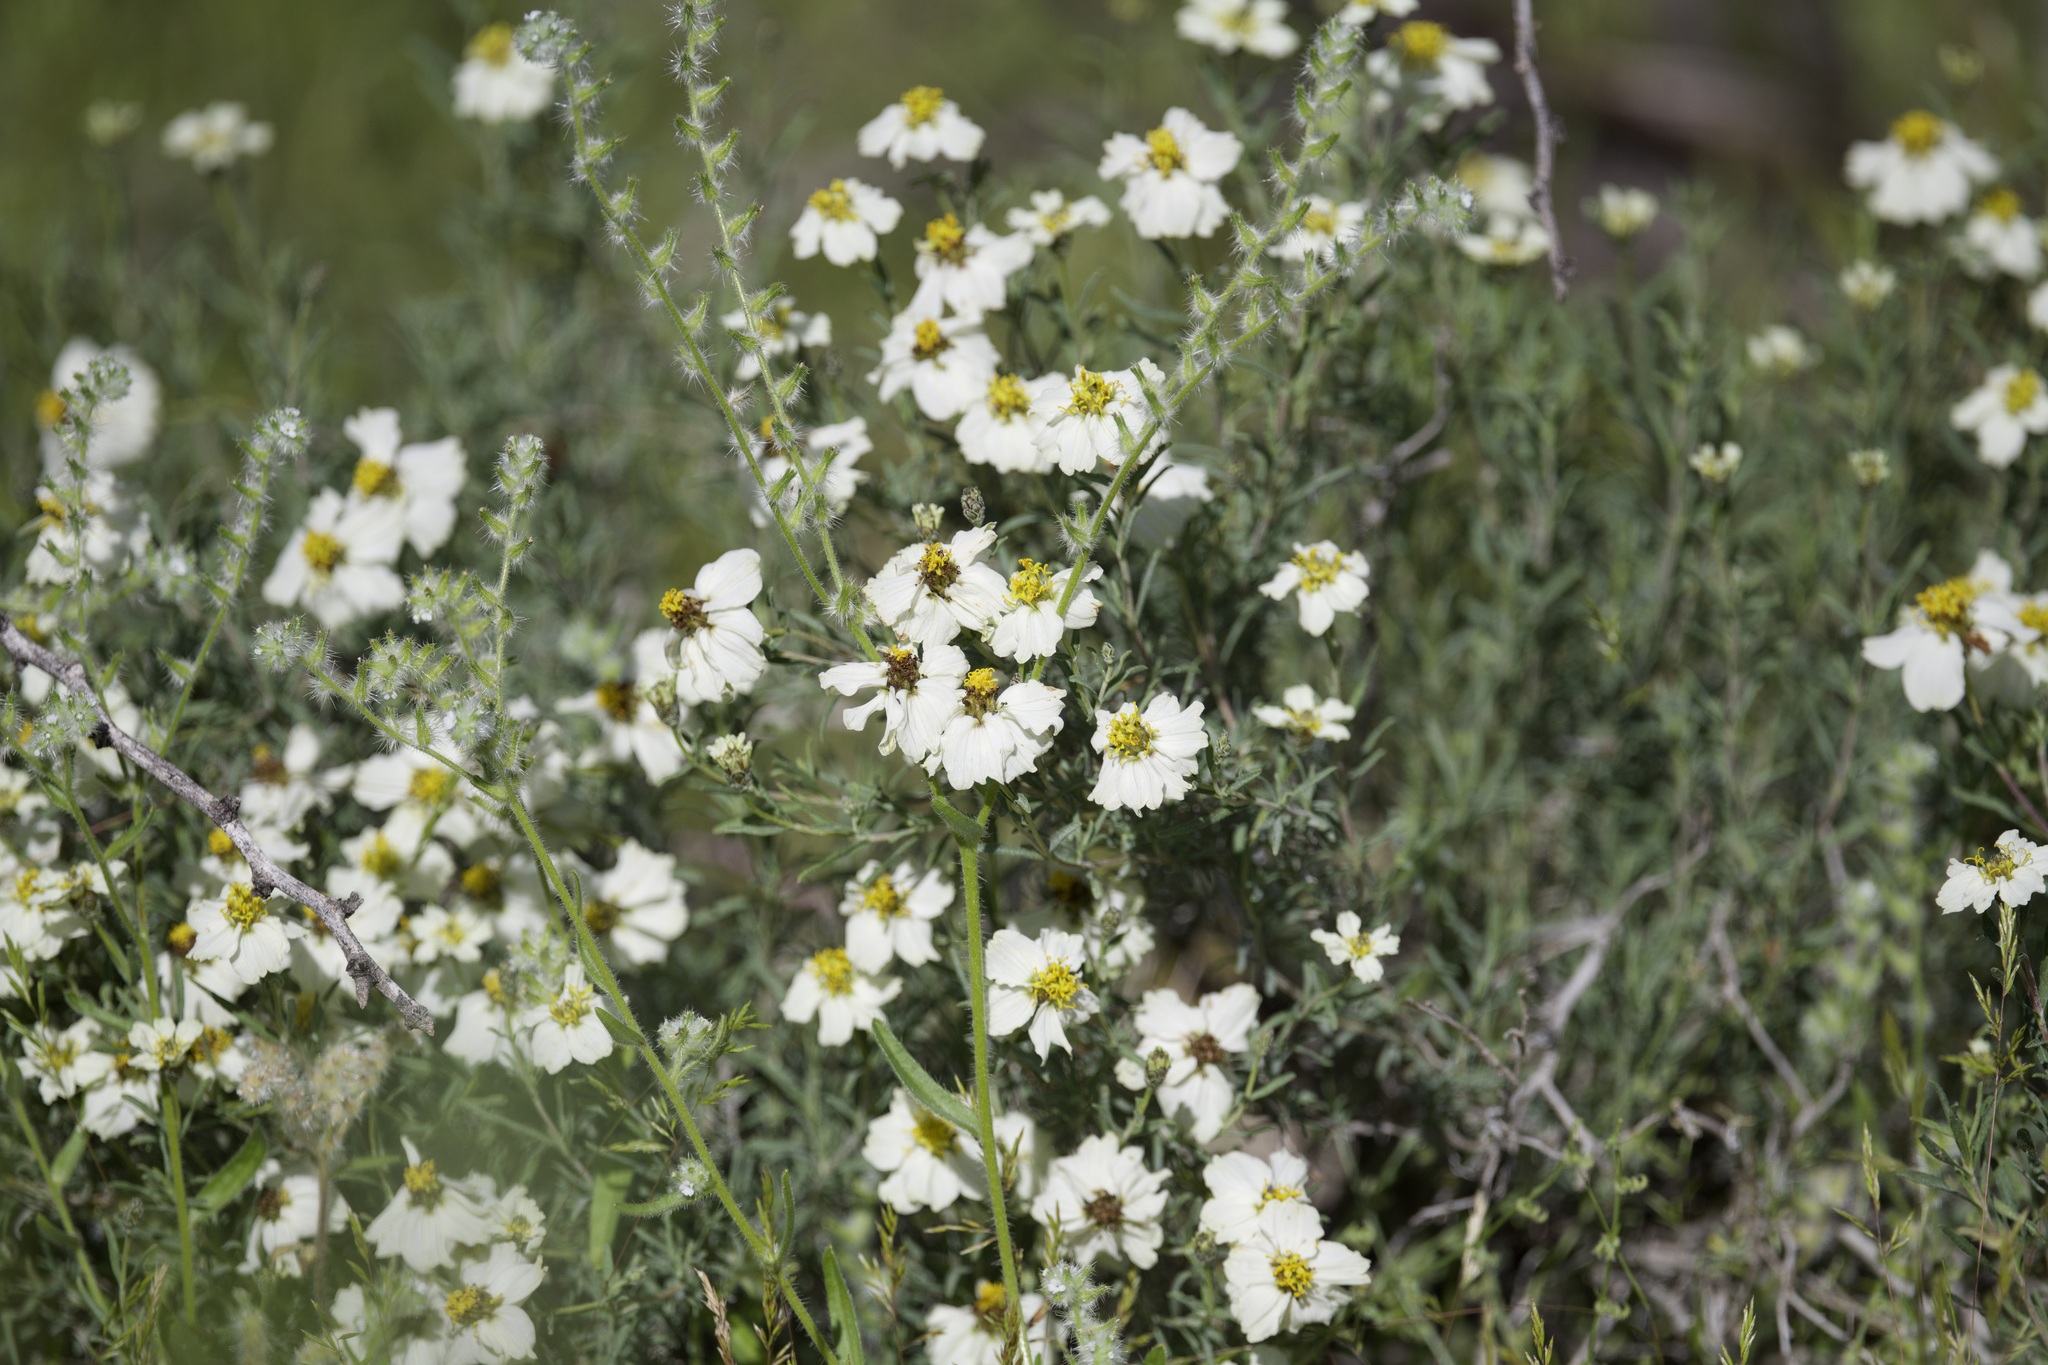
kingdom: Plantae
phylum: Tracheophyta
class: Magnoliopsida
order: Asterales
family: Asteraceae
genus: Zinnia
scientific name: Zinnia acerosa
